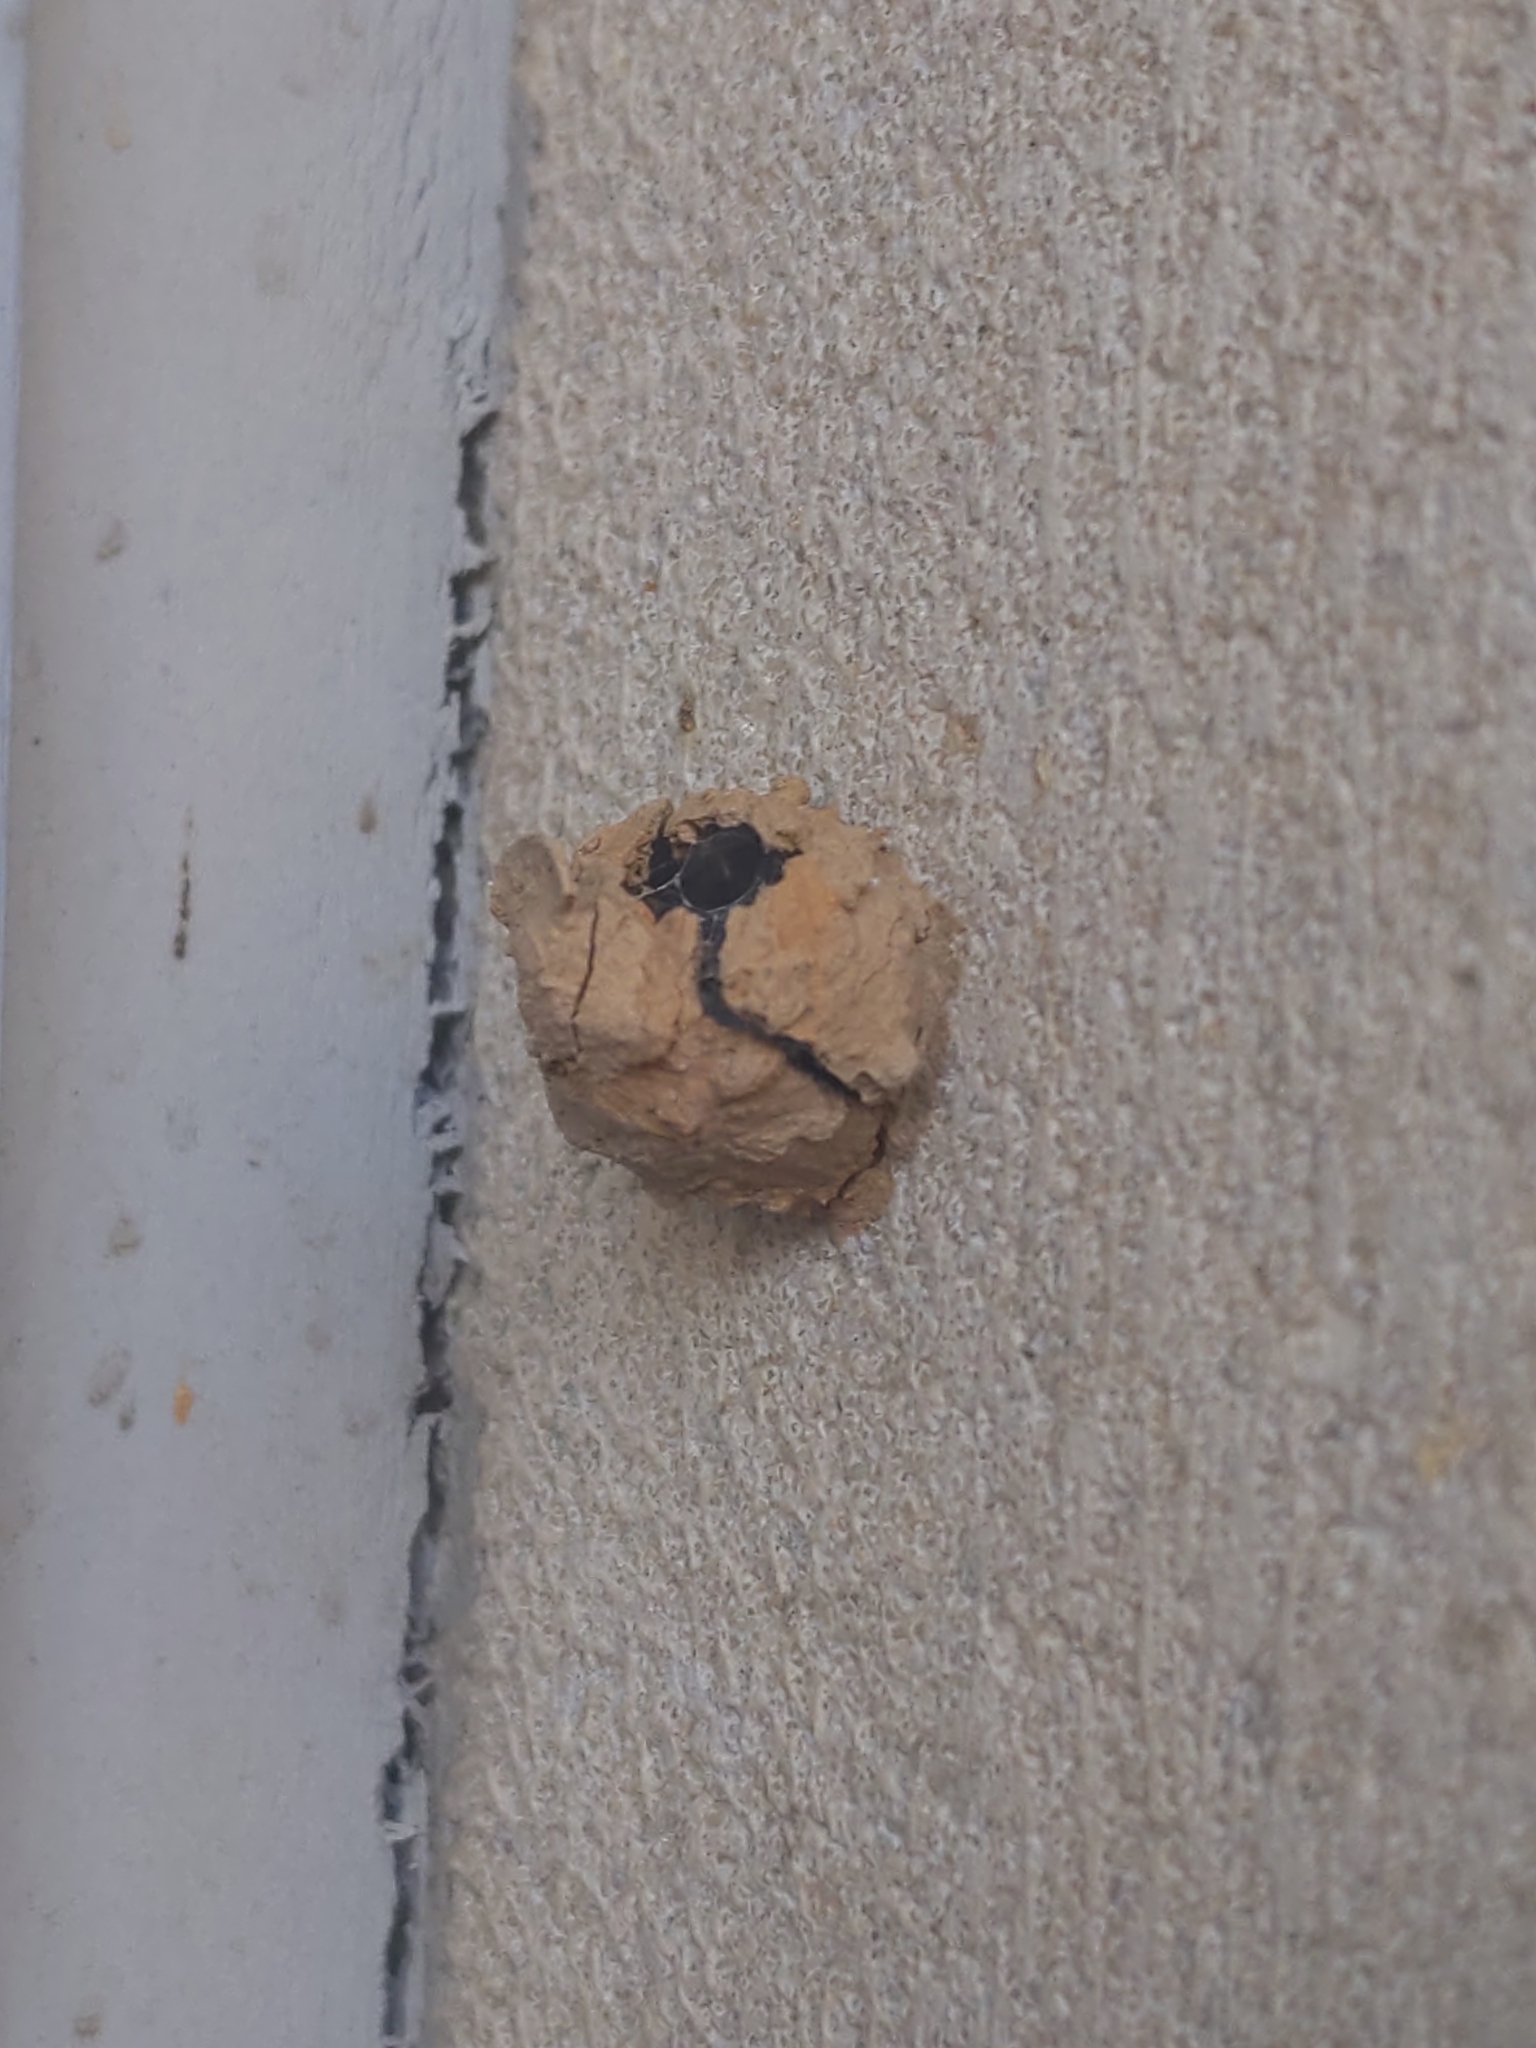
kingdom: Animalia
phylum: Arthropoda
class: Insecta
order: Hymenoptera
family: Vespidae
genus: Eumenes
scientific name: Eumenes
